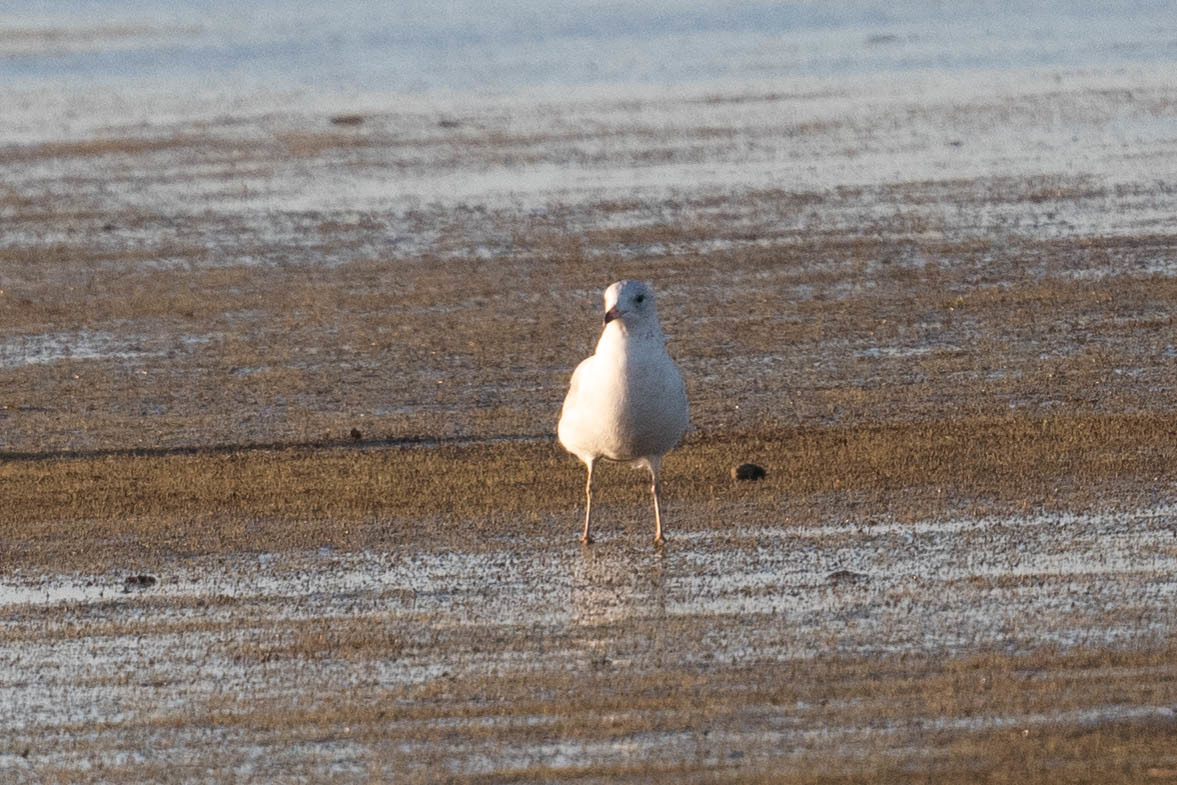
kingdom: Animalia
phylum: Chordata
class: Aves
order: Charadriiformes
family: Laridae
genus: Larus
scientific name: Larus delawarensis
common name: Ring-billed gull
